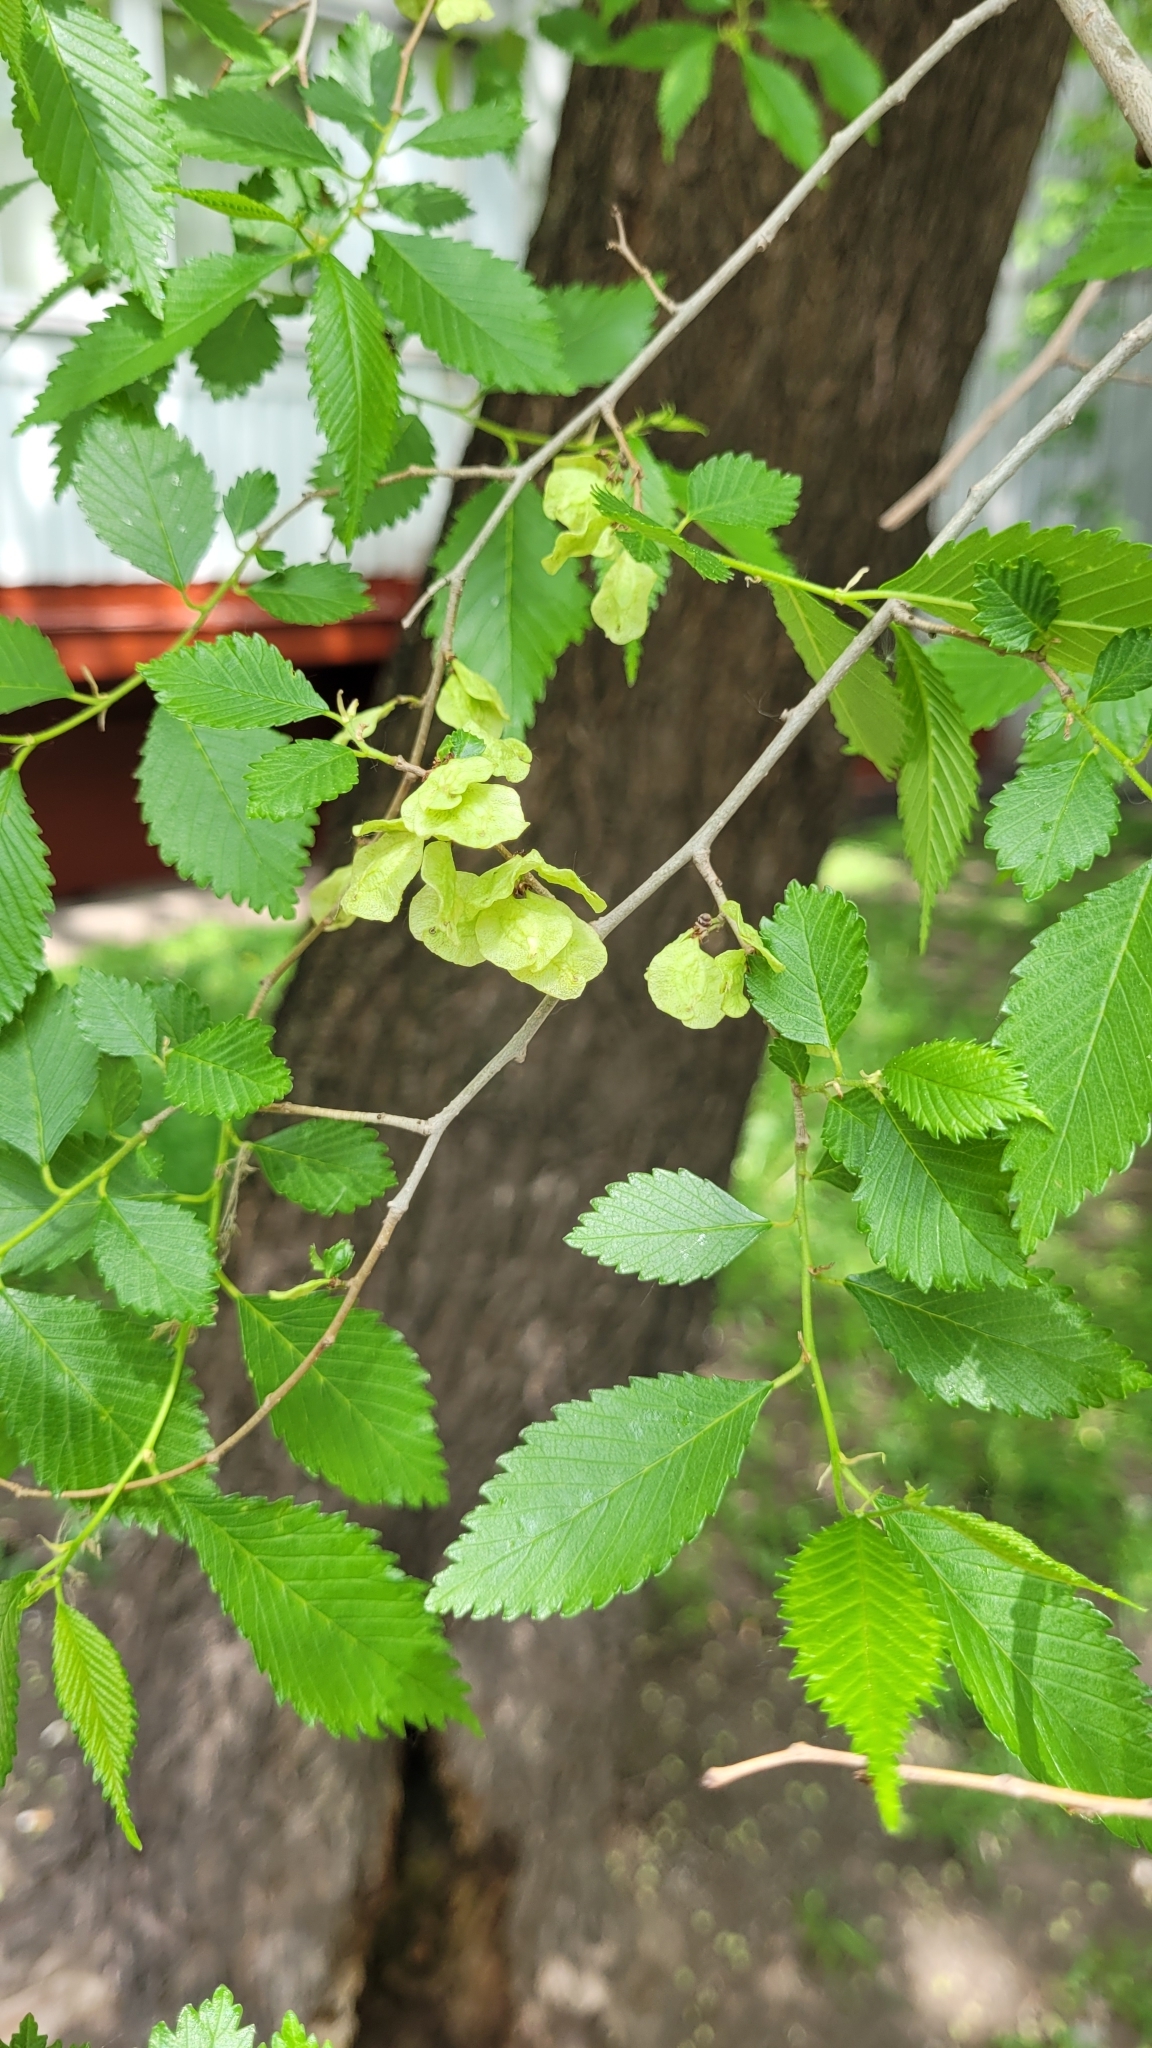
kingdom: Plantae
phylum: Tracheophyta
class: Magnoliopsida
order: Rosales
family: Ulmaceae
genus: Ulmus
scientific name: Ulmus pumila
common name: Siberian elm
